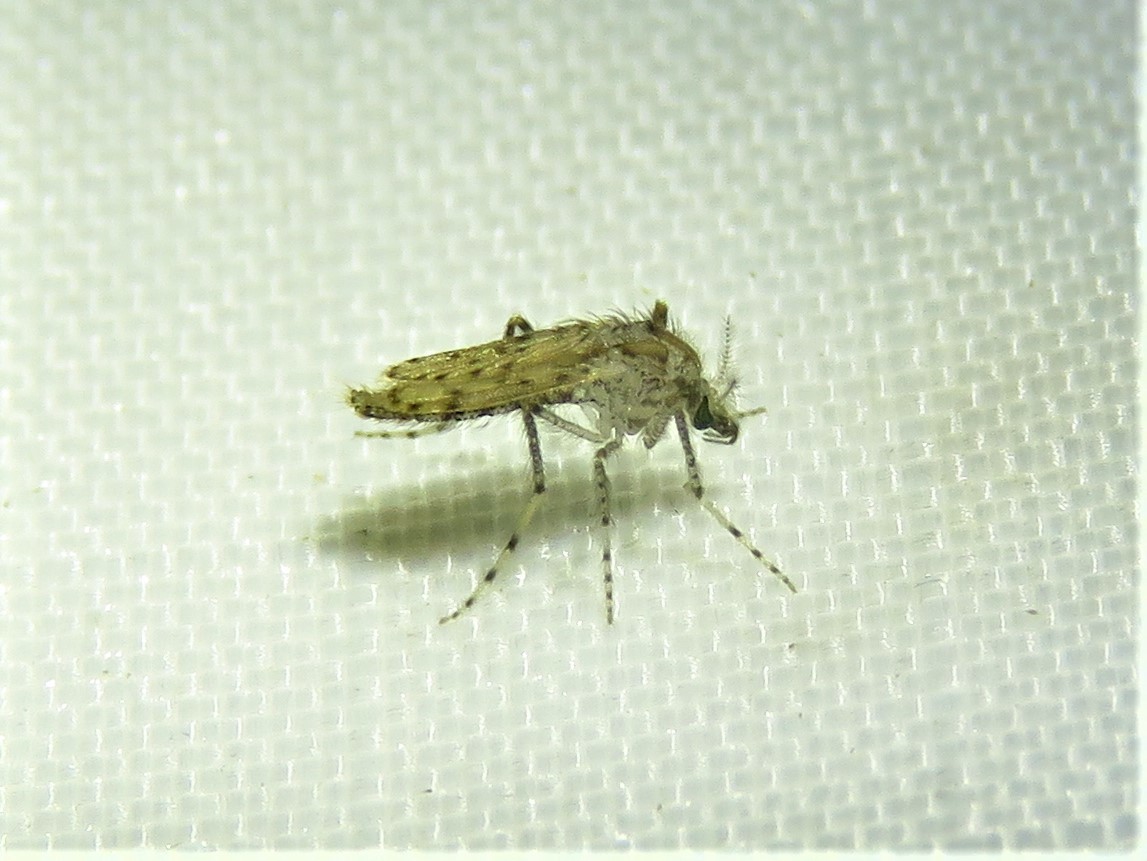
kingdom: Animalia
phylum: Arthropoda
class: Insecta
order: Diptera
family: Chaoboridae
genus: Chaoborus
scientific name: Chaoborus punctipennis
